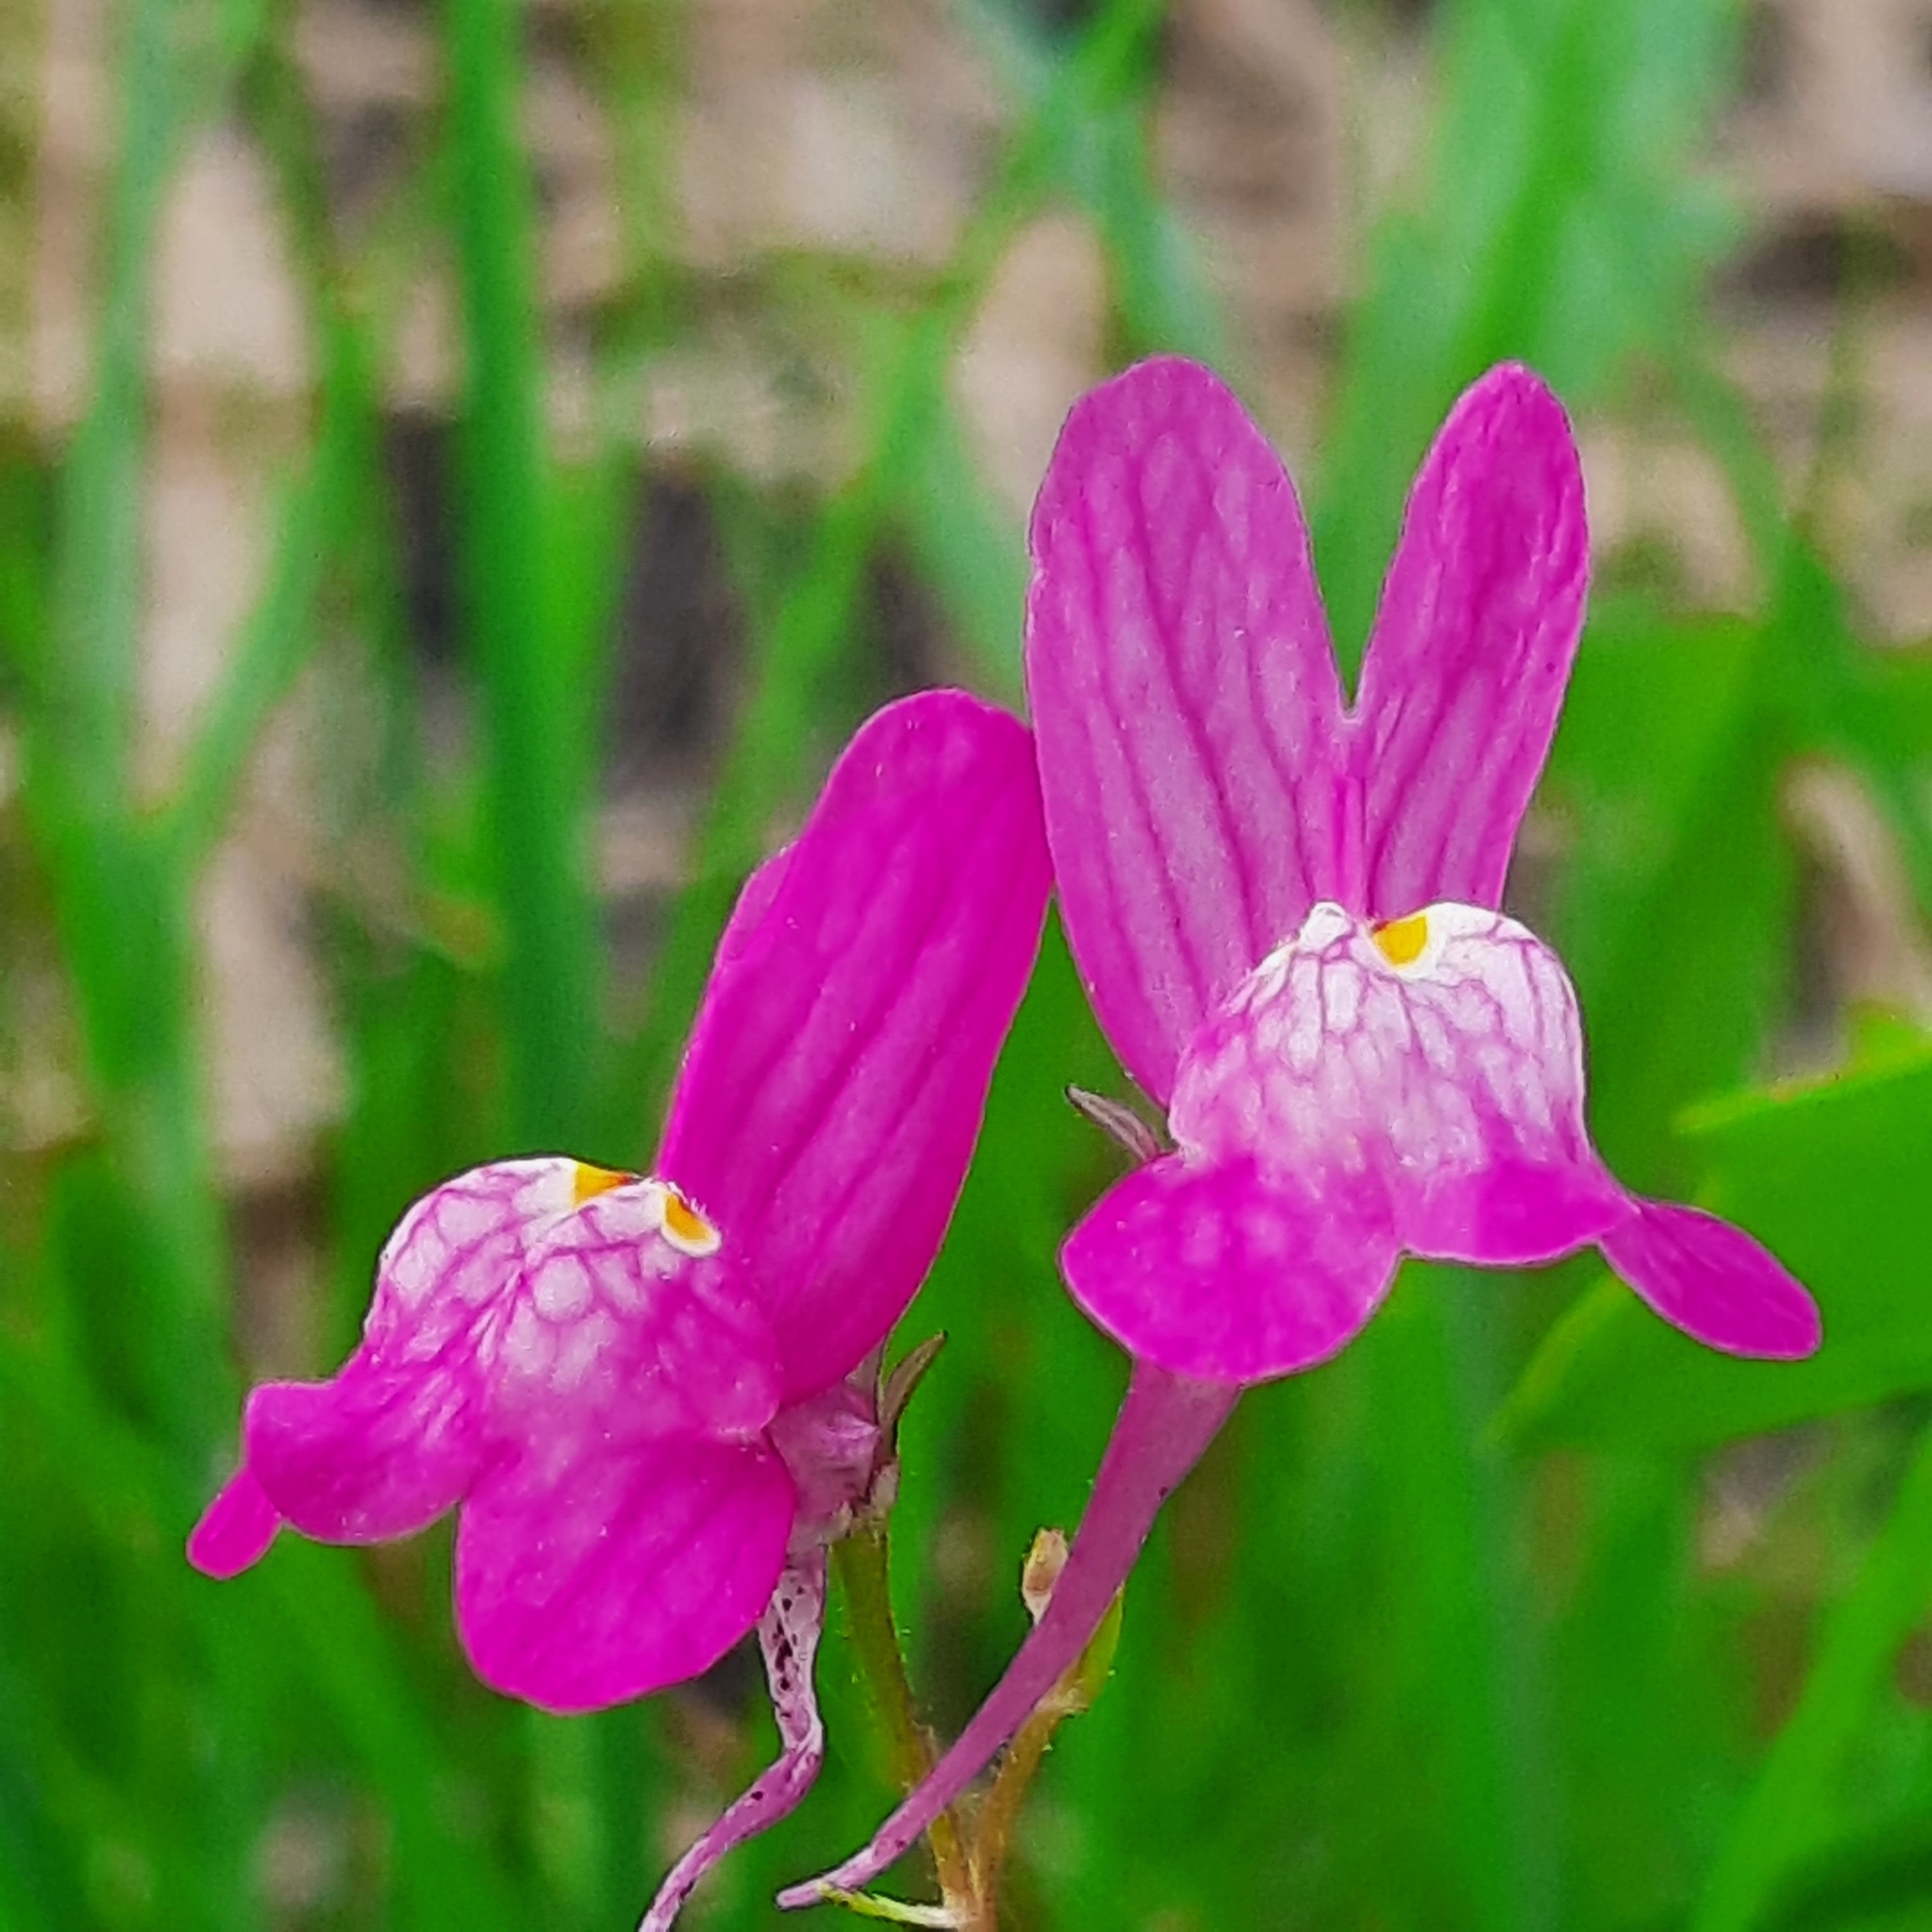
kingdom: Plantae
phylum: Tracheophyta
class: Magnoliopsida
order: Lamiales
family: Plantaginaceae
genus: Linaria
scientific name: Linaria maroccana
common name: Moroccan toadflax
